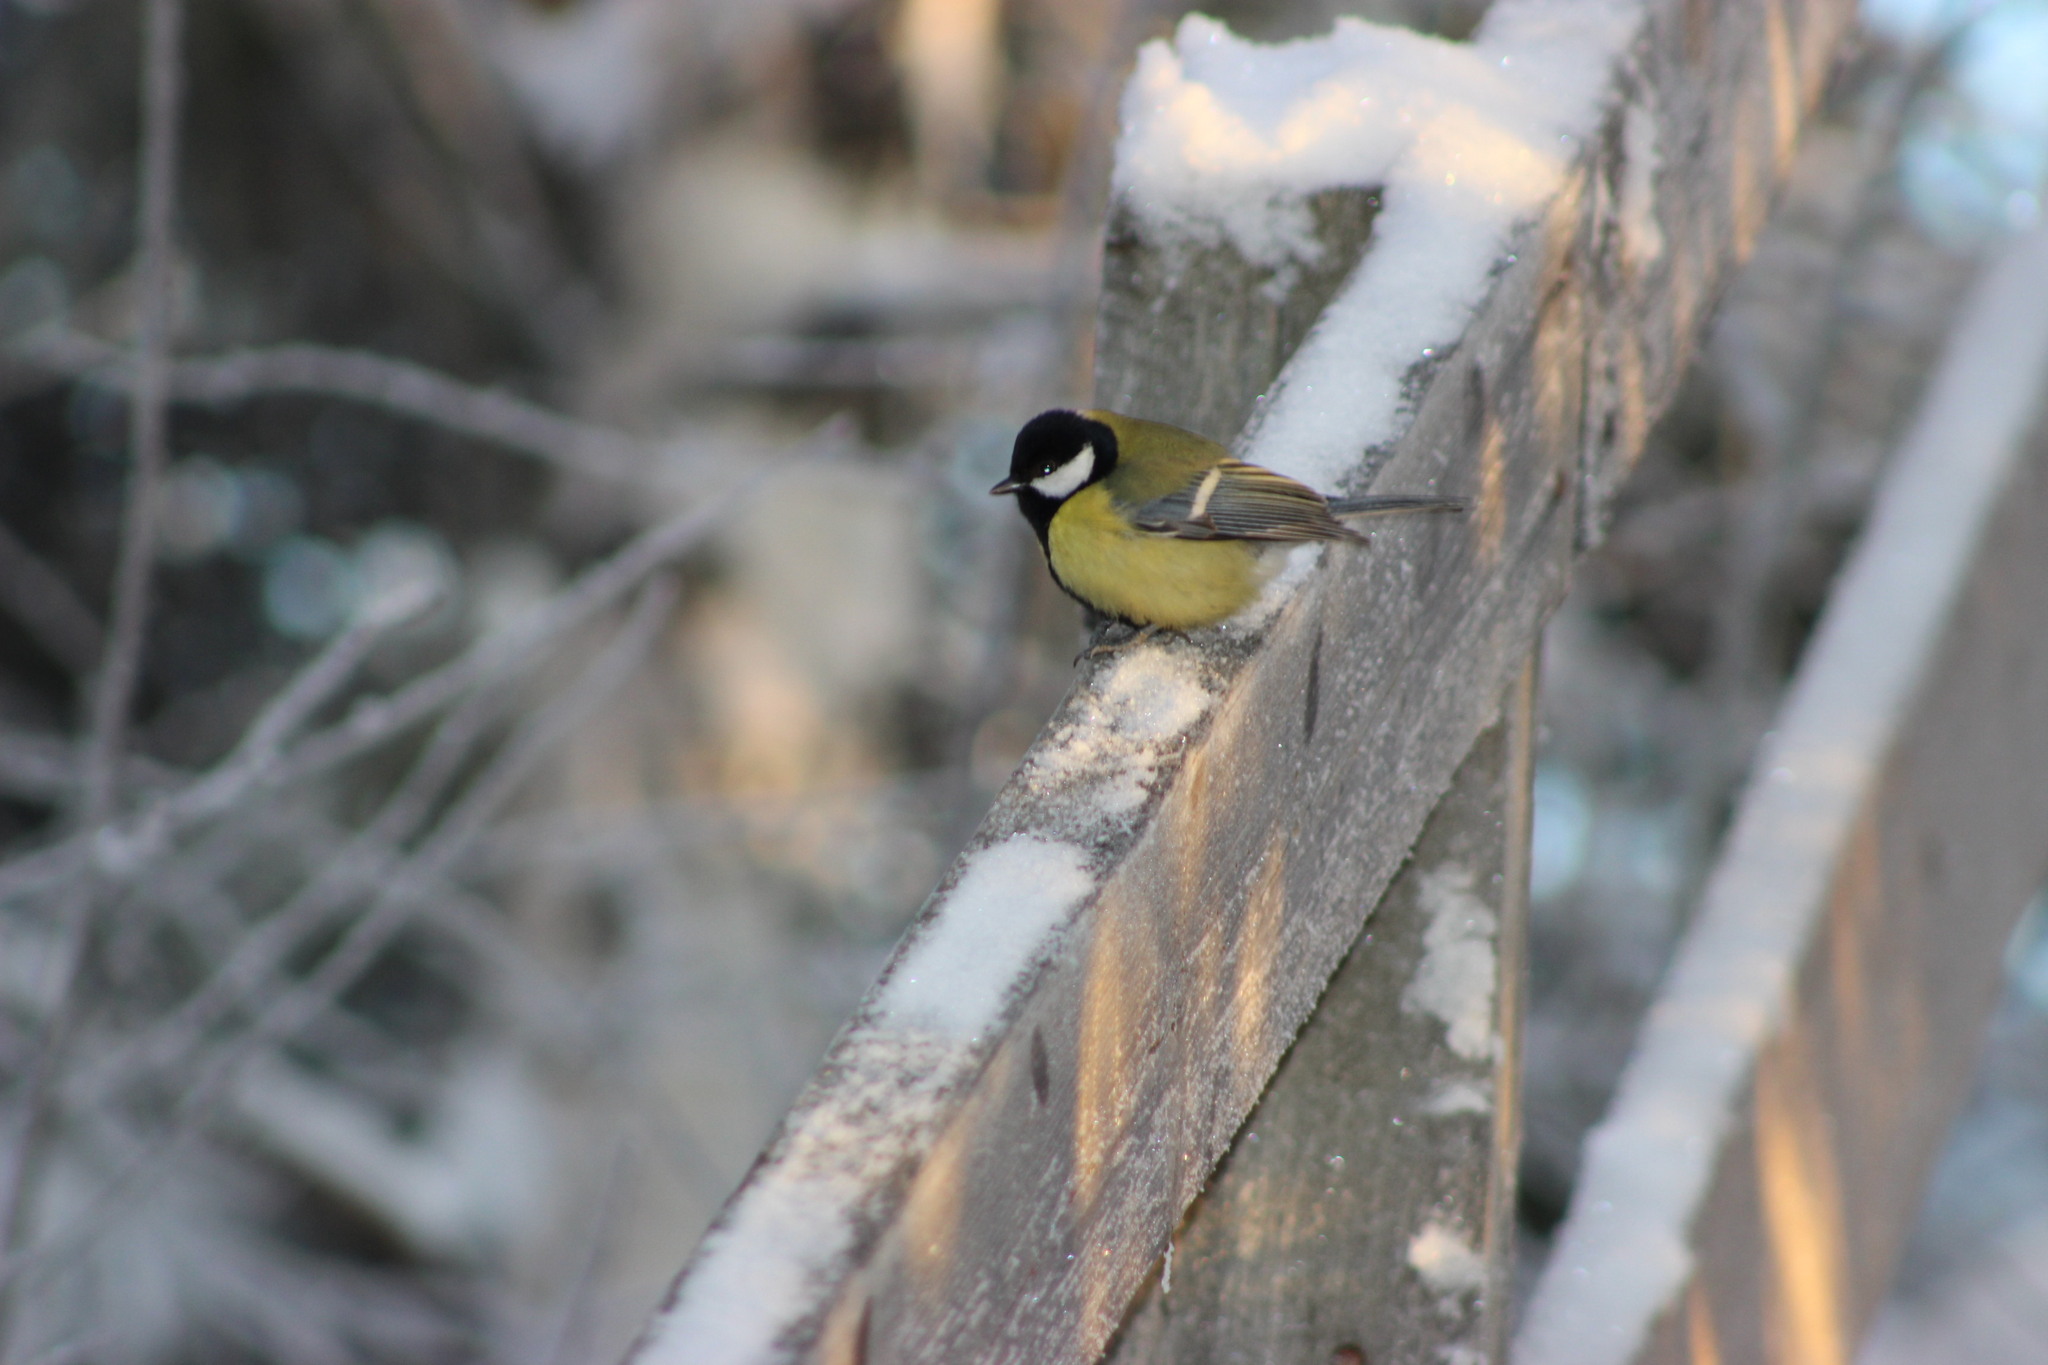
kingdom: Animalia
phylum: Chordata
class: Aves
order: Passeriformes
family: Paridae
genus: Parus
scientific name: Parus major
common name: Great tit
